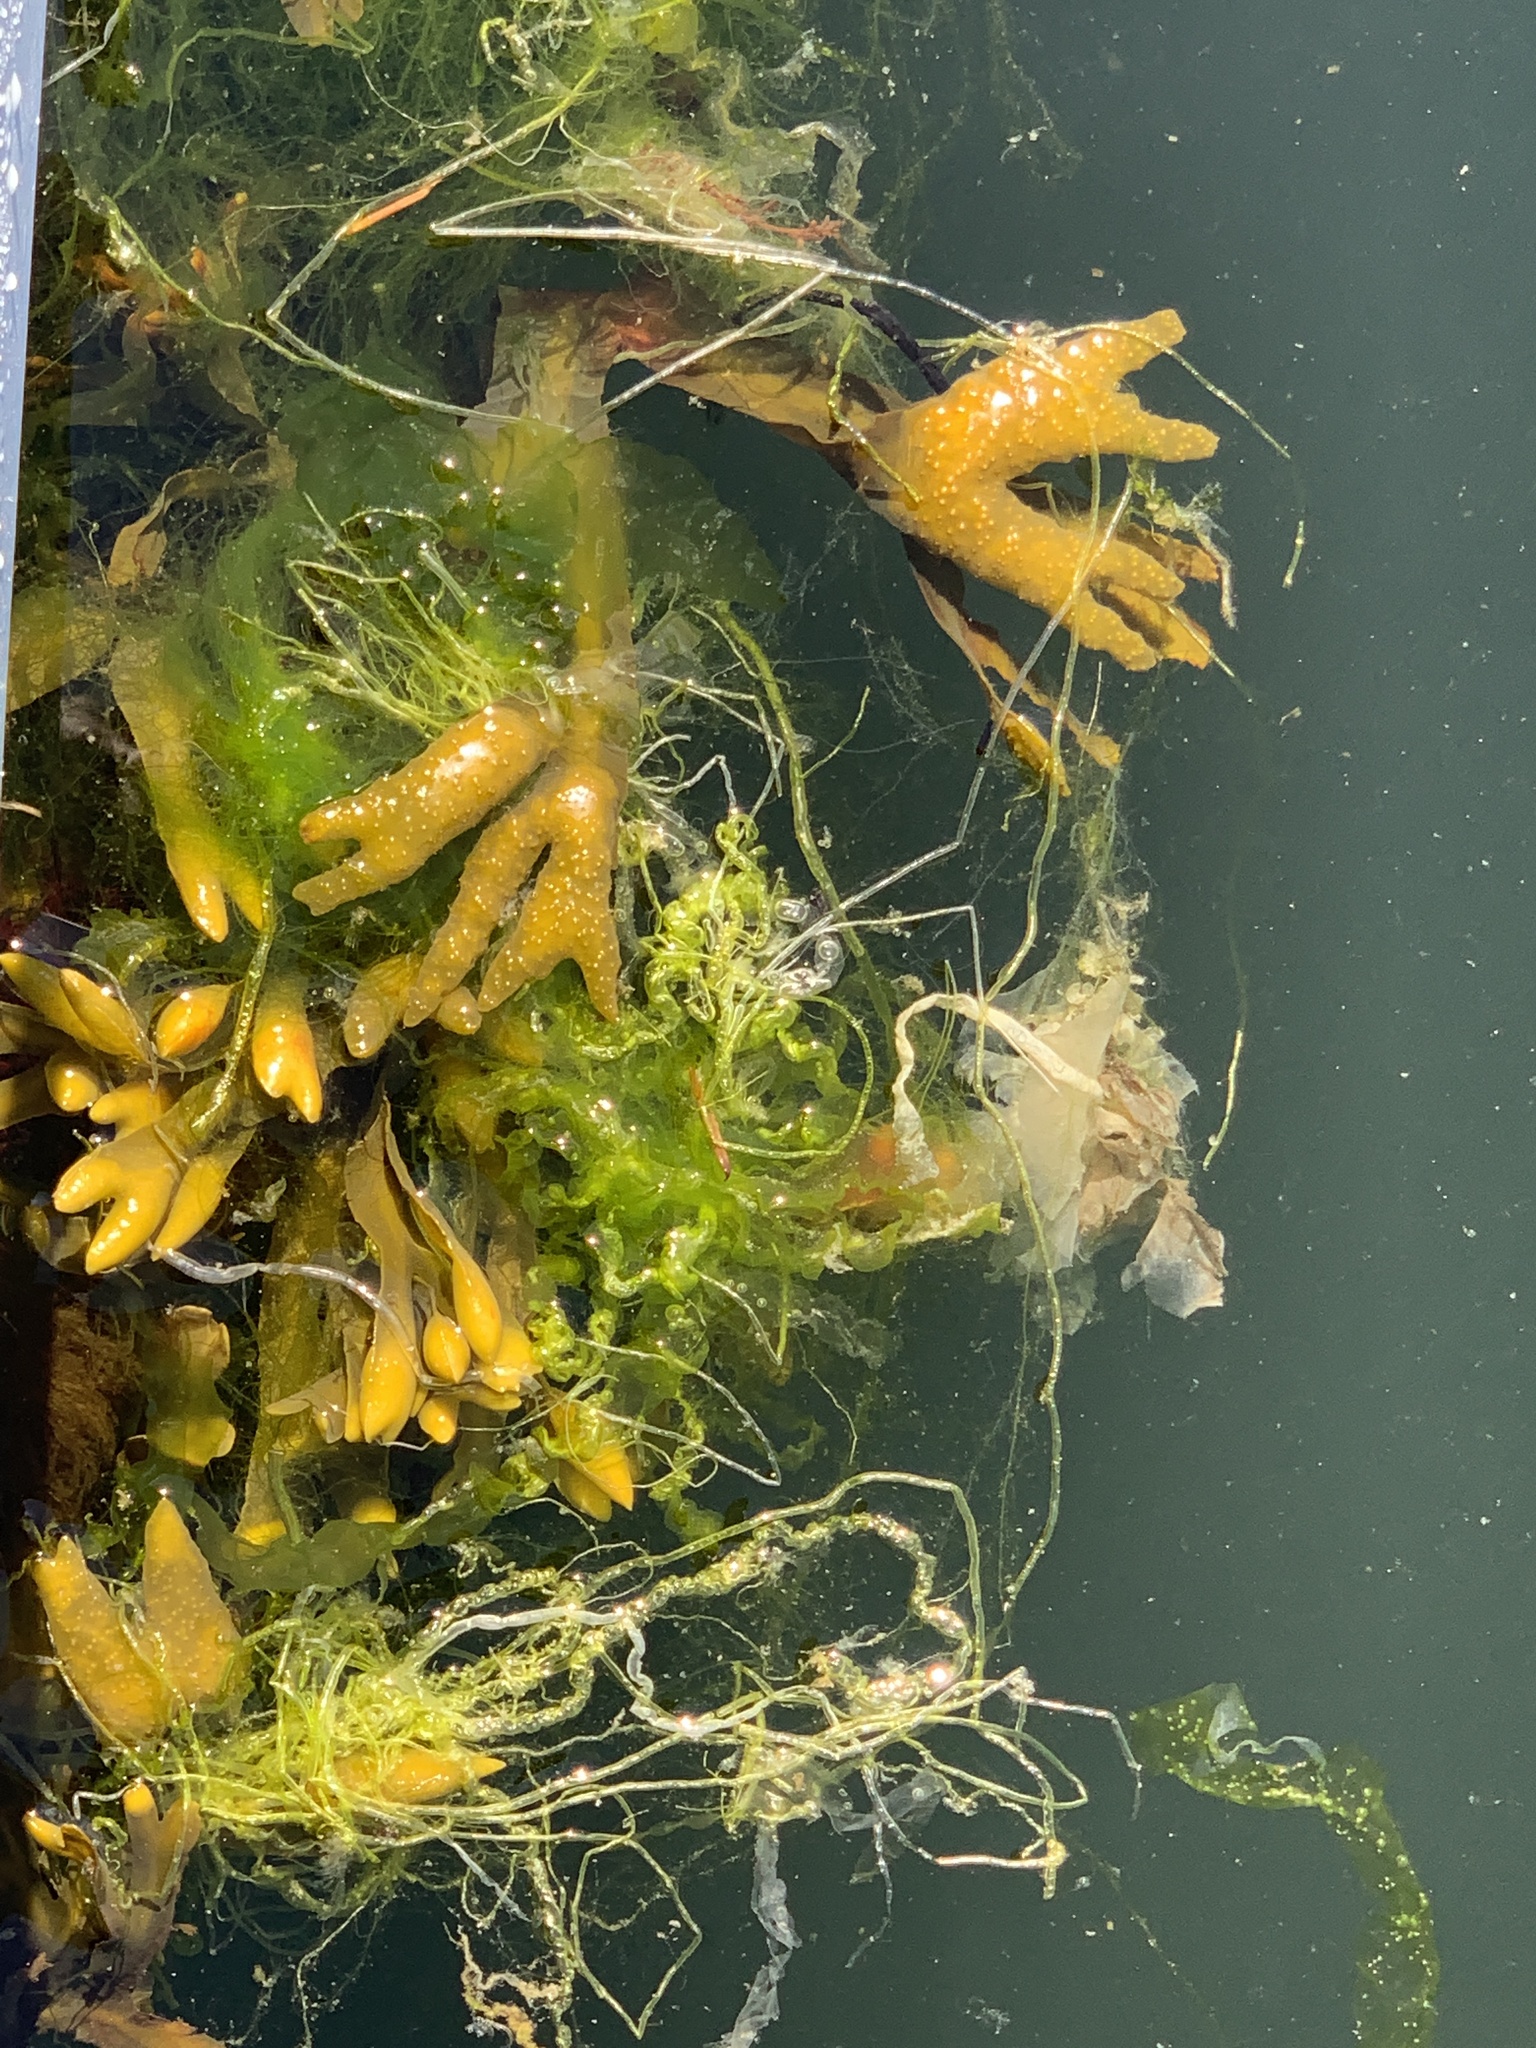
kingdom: Chromista
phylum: Ochrophyta
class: Phaeophyceae
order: Fucales
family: Fucaceae
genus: Fucus
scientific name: Fucus distichus
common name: Rockweed
